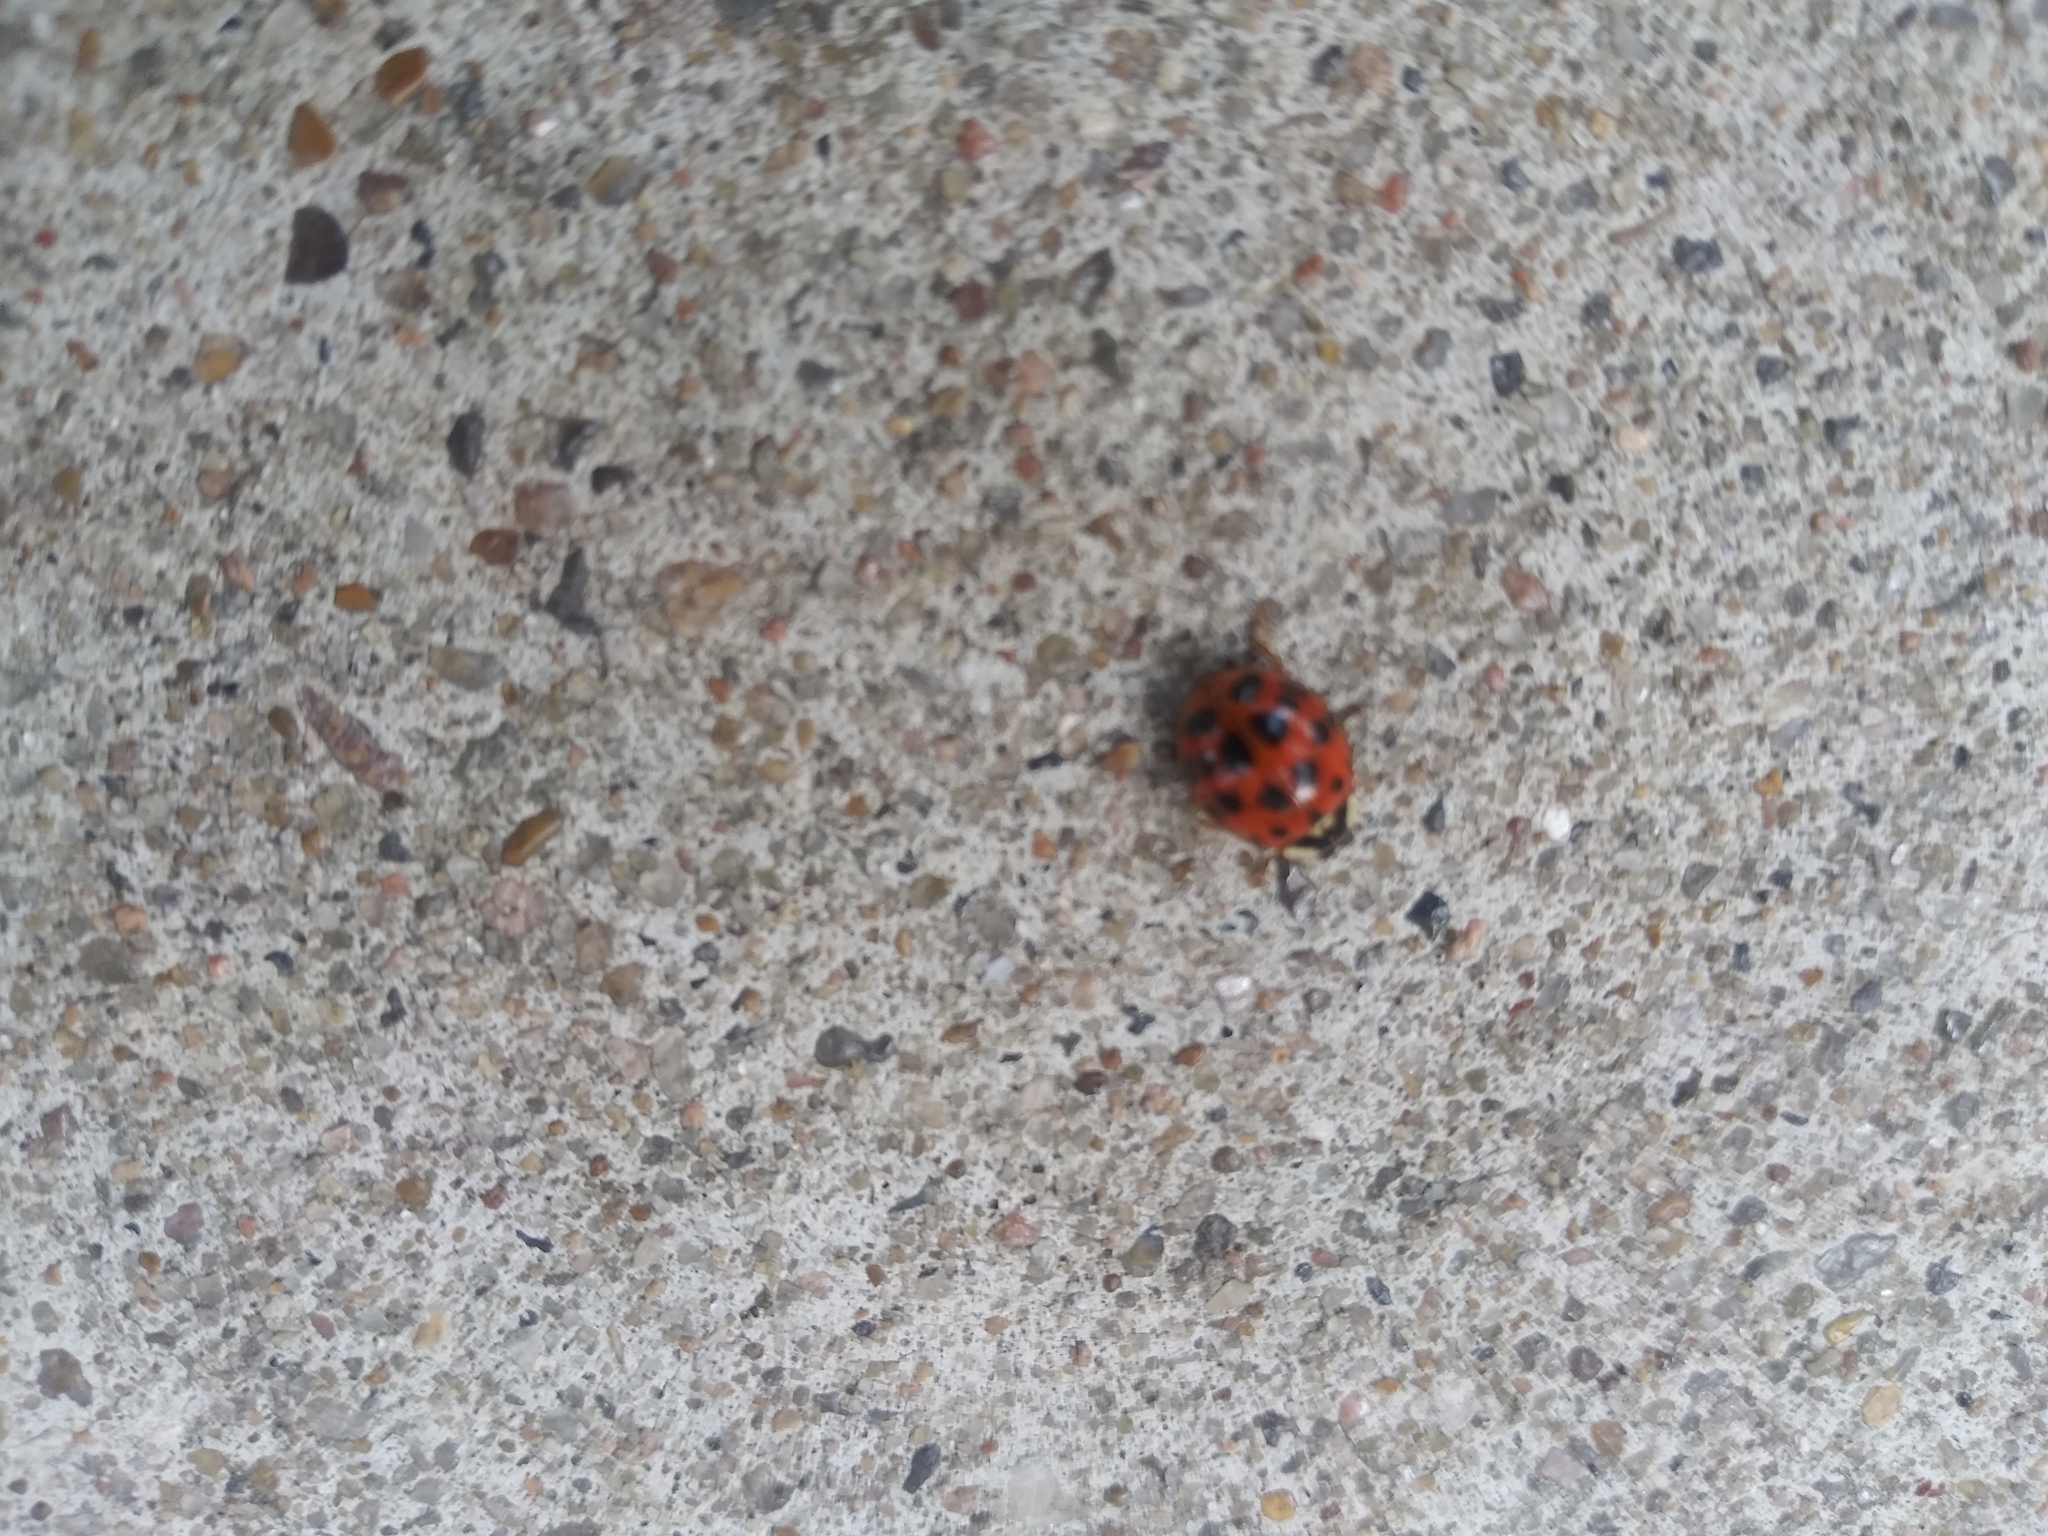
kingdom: Animalia
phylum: Arthropoda
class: Insecta
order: Coleoptera
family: Coccinellidae
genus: Harmonia
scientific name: Harmonia axyridis
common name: Harlequin ladybird
